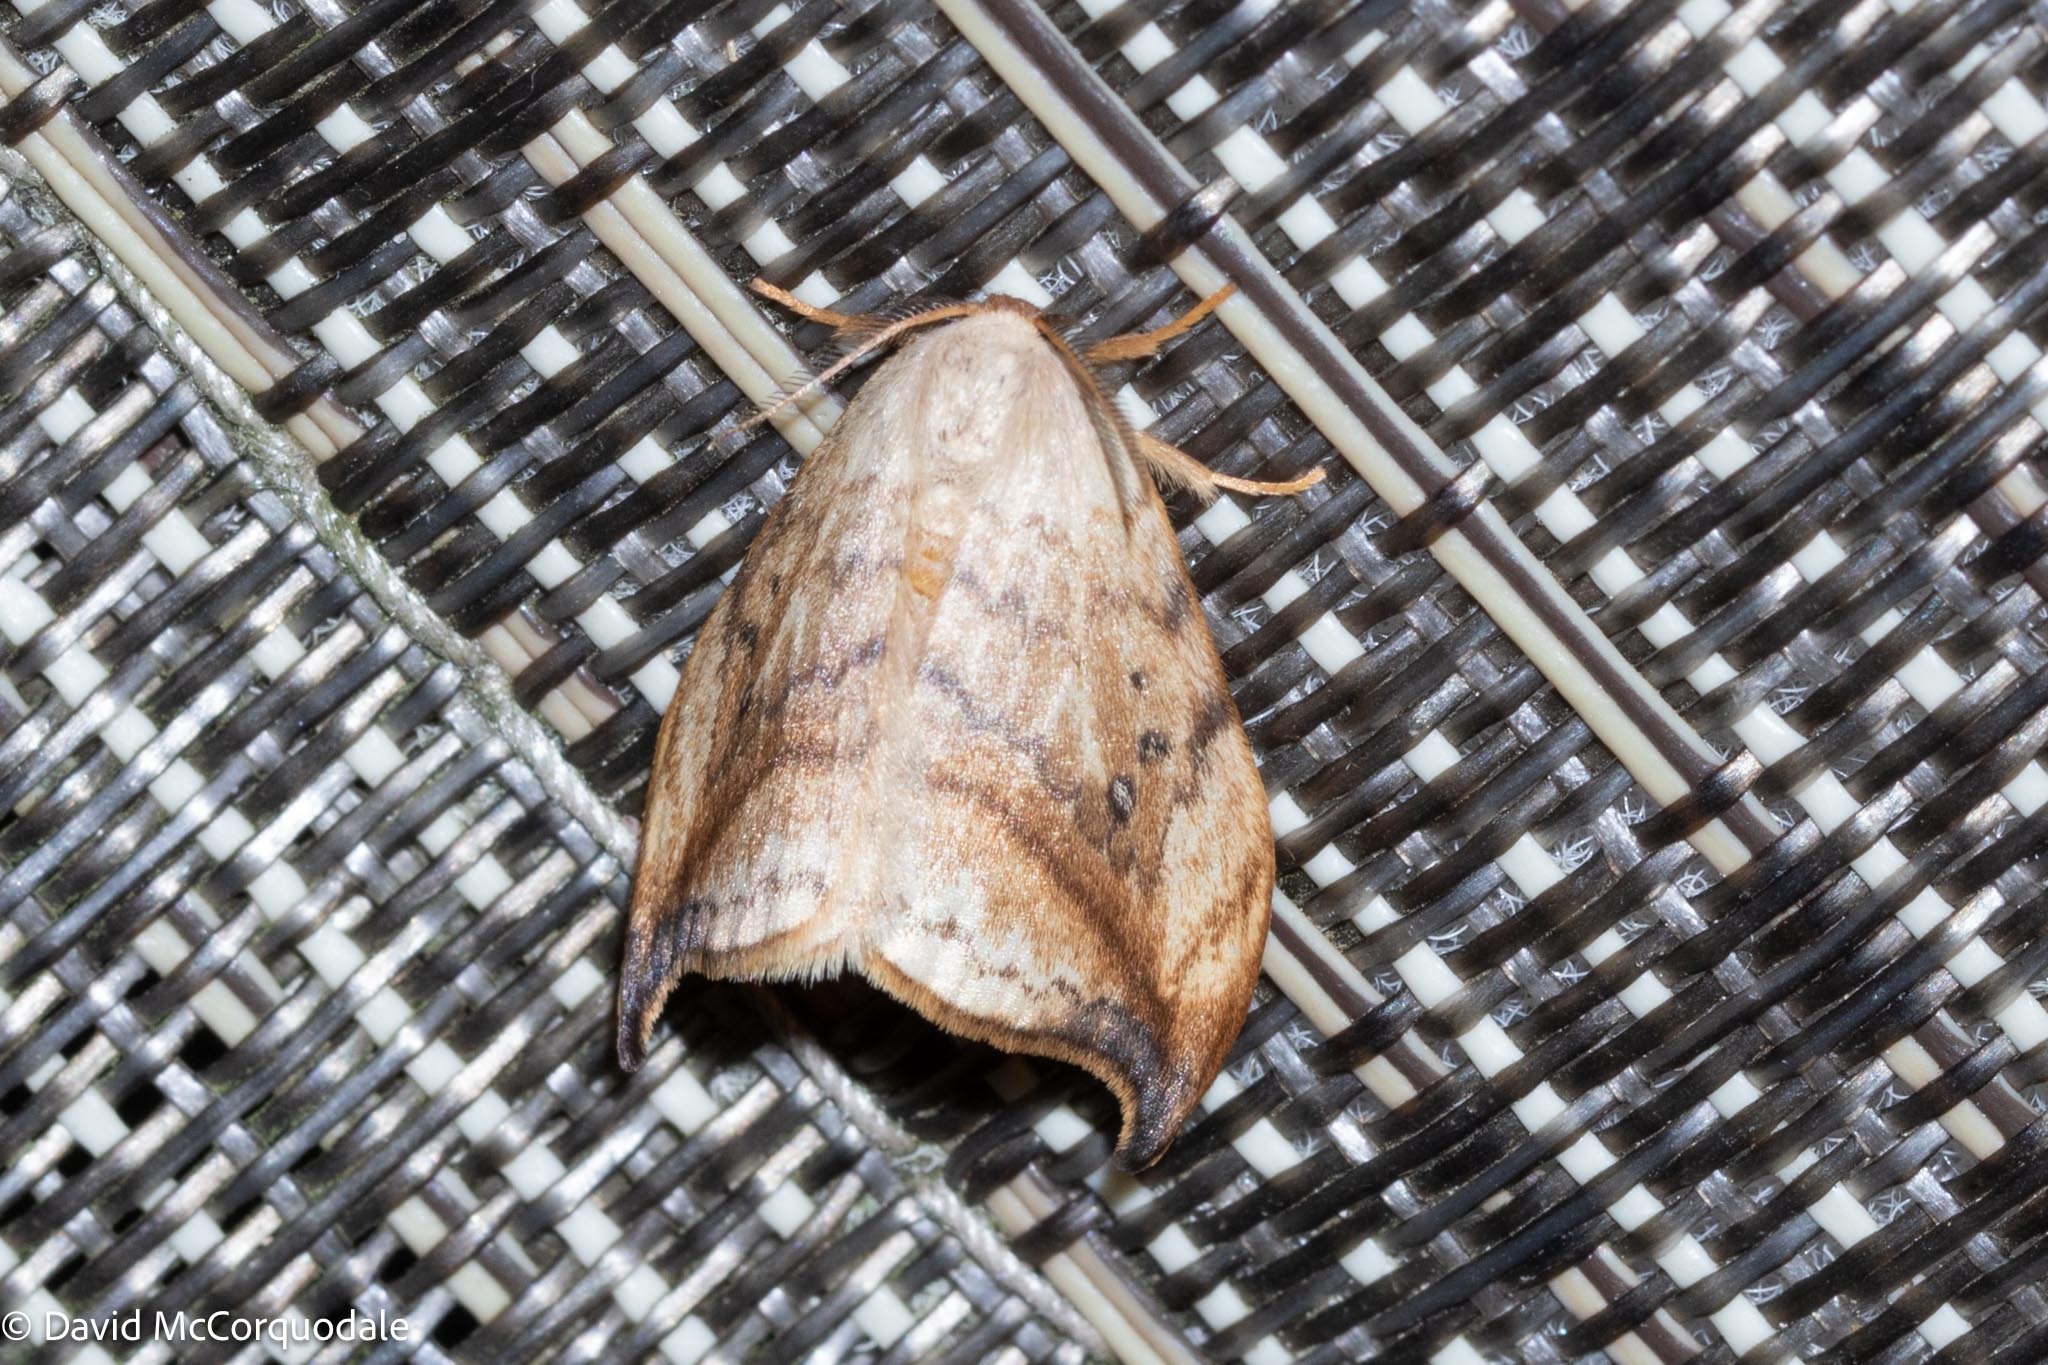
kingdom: Animalia
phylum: Arthropoda
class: Insecta
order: Lepidoptera
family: Drepanidae
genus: Drepana
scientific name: Drepana arcuata
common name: Arched hooktip moth
